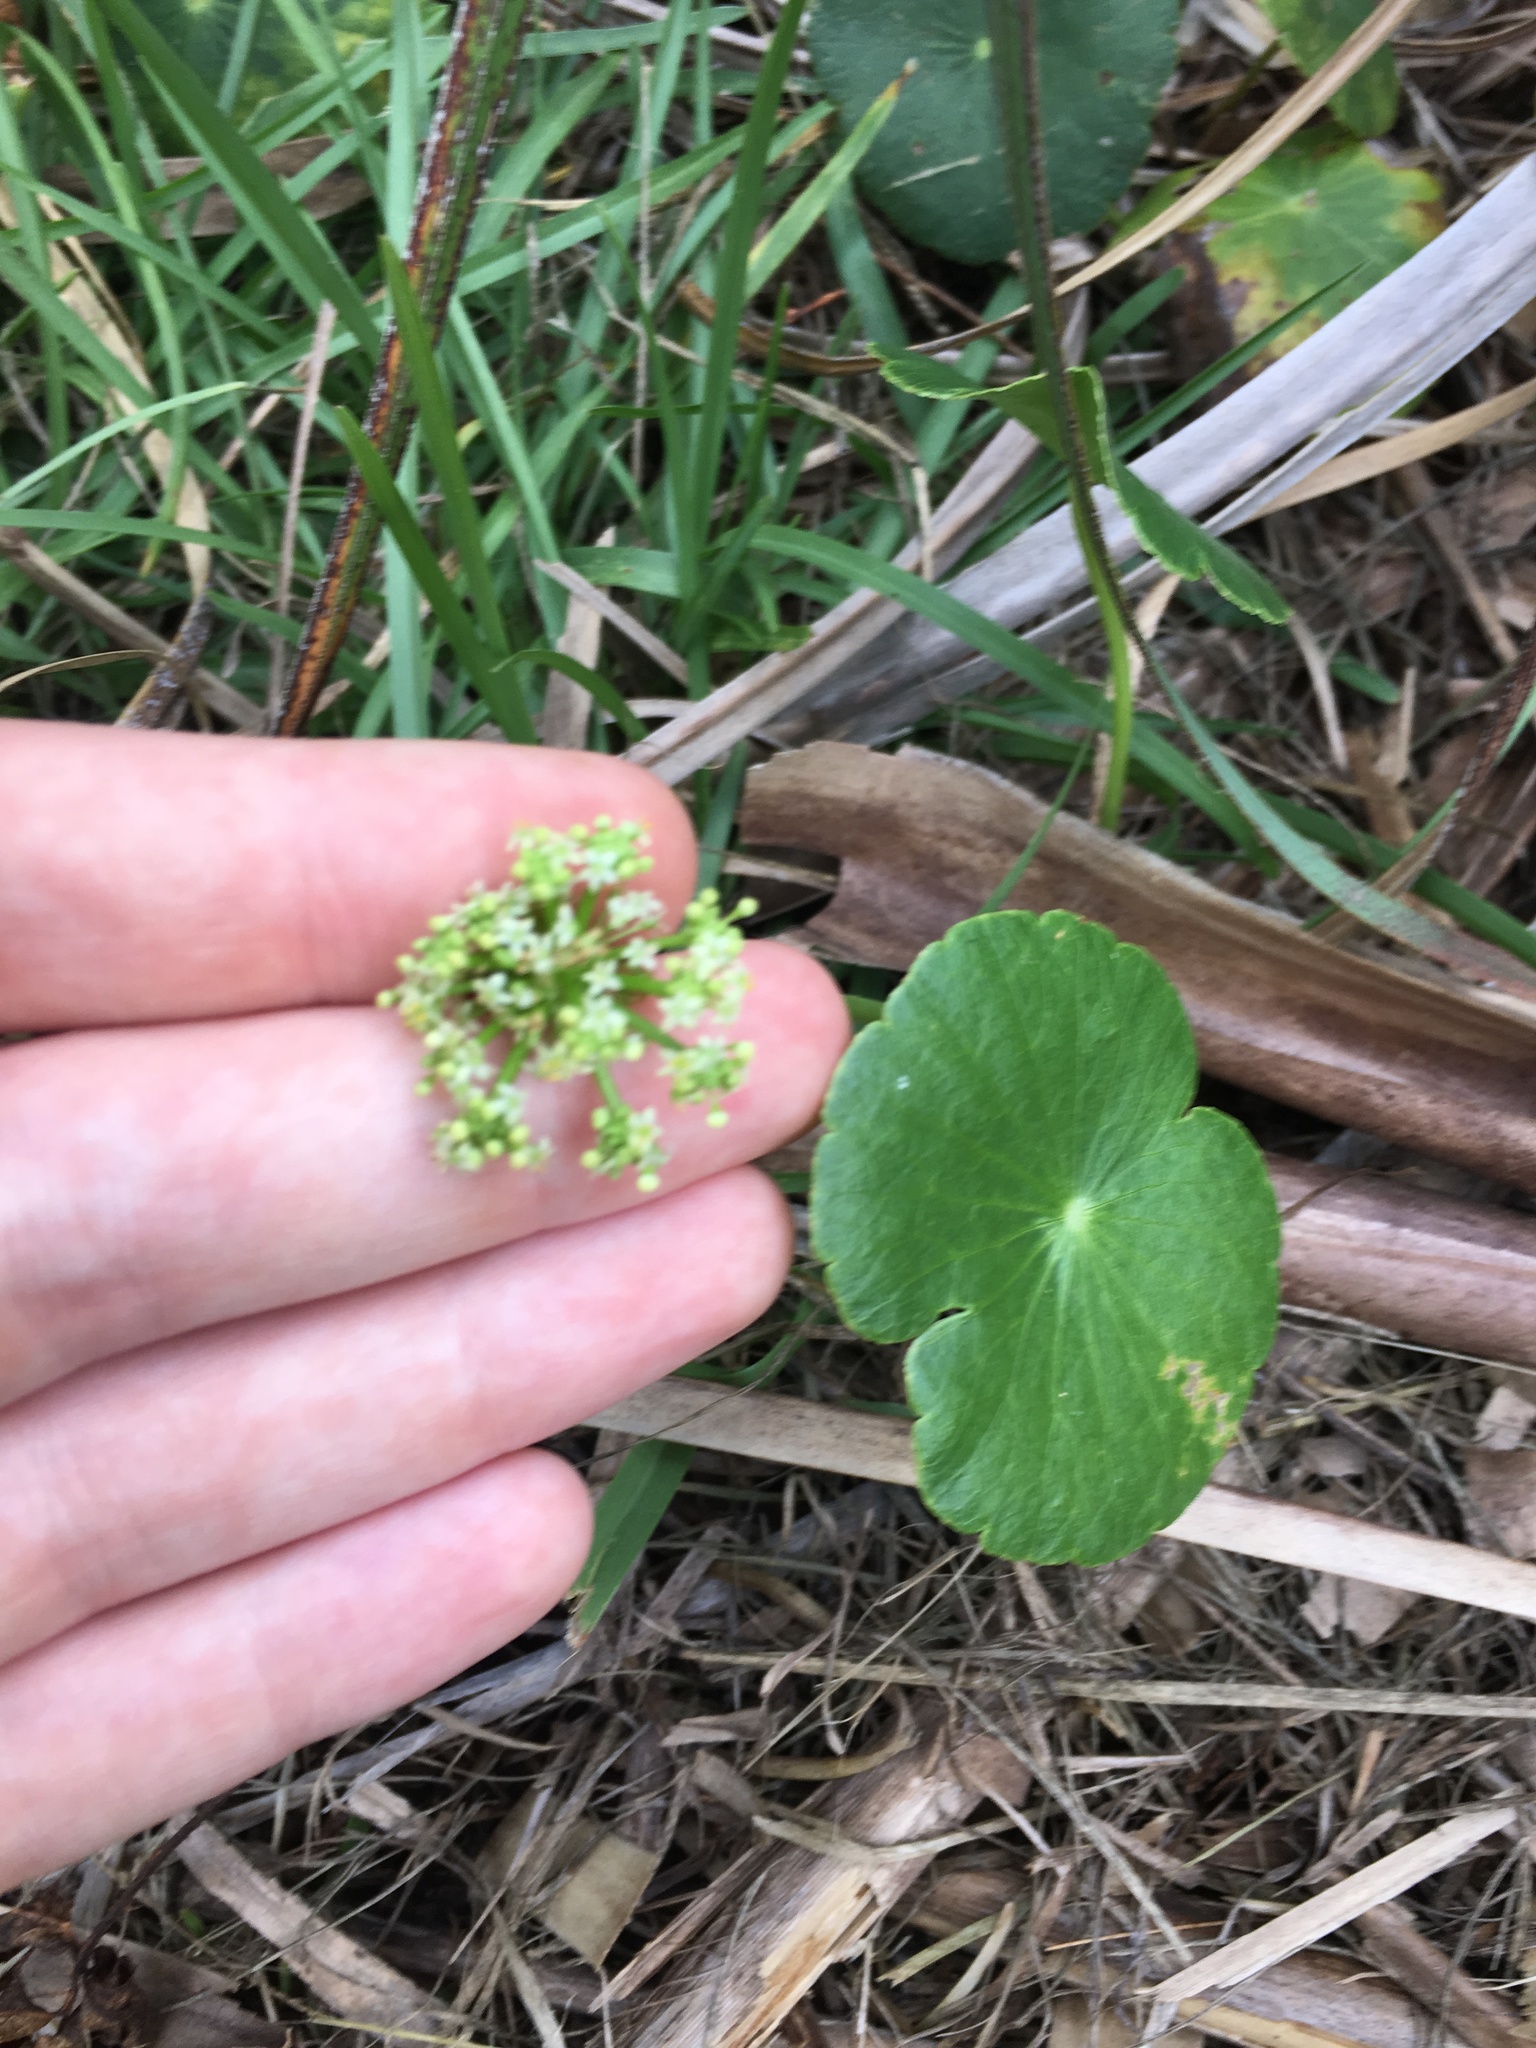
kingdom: Plantae
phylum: Tracheophyta
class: Magnoliopsida
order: Apiales
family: Araliaceae
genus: Hydrocotyle
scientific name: Hydrocotyle bonariensis
